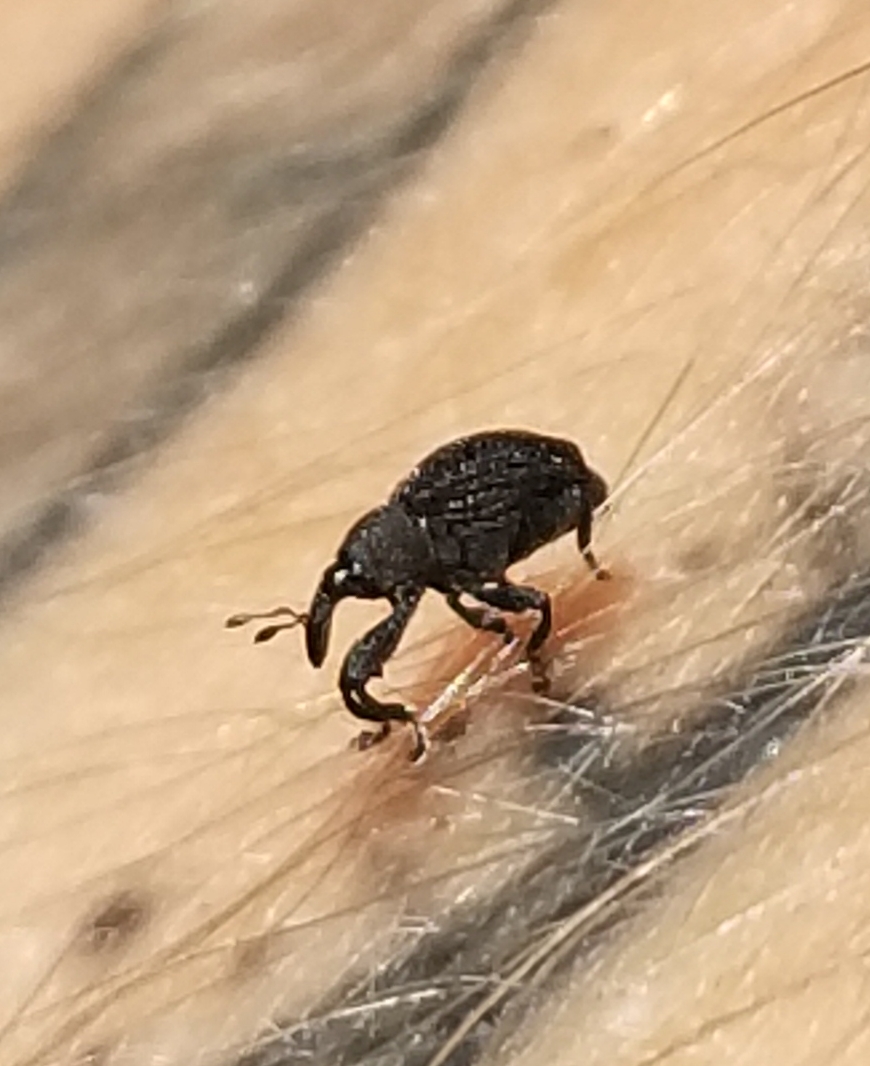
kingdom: Animalia
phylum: Arthropoda
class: Insecta
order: Coleoptera
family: Curculionidae
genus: Odontopus
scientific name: Odontopus calceatus
